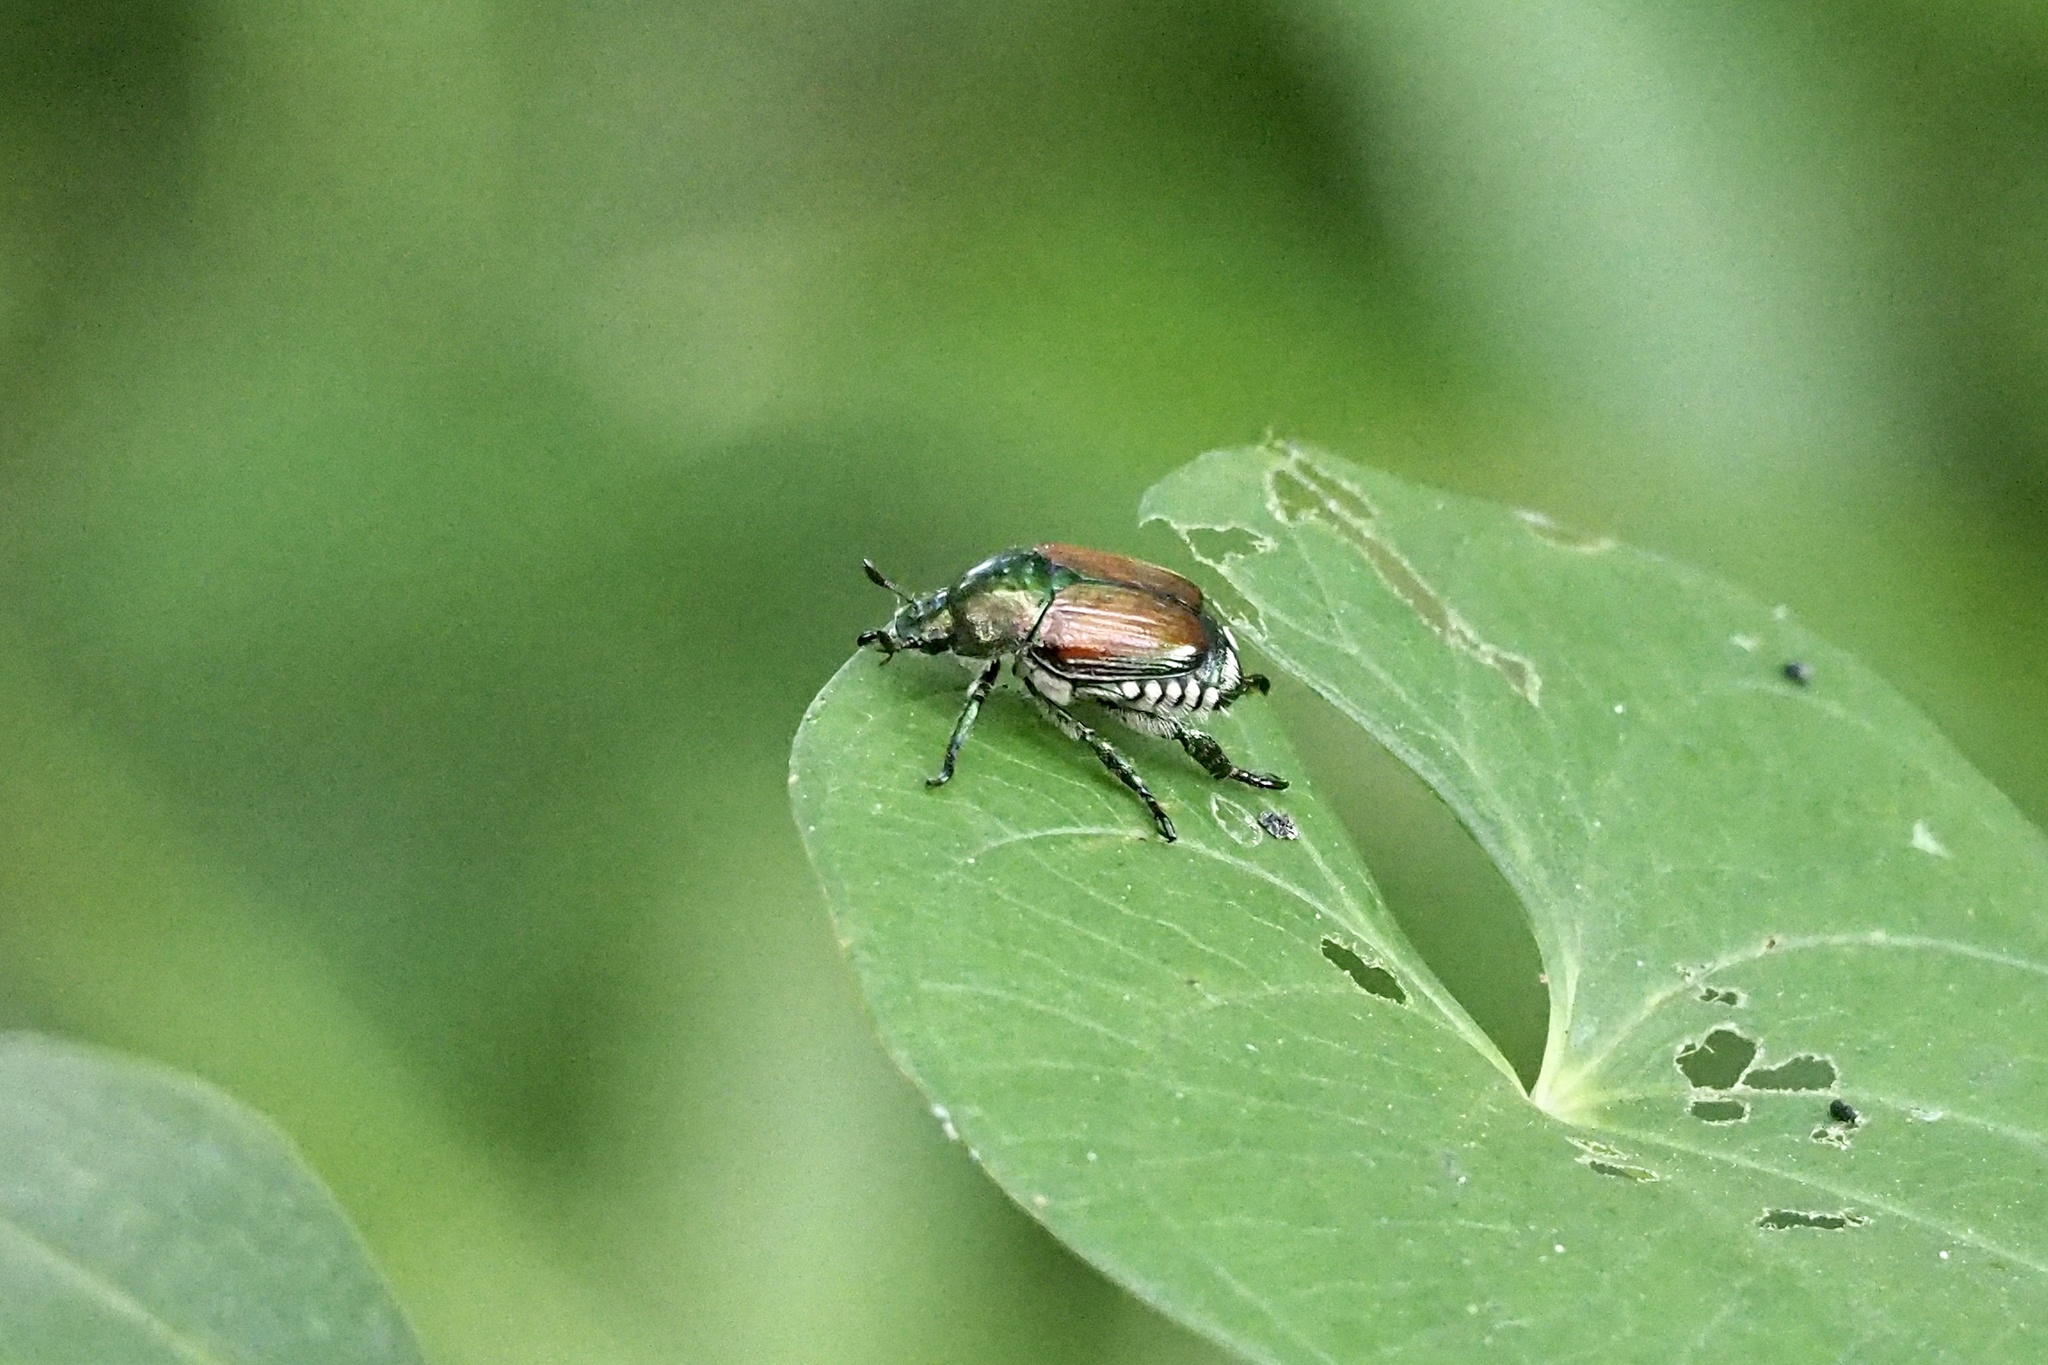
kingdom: Animalia
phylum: Arthropoda
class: Insecta
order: Coleoptera
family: Scarabaeidae
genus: Popillia
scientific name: Popillia japonica
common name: Japanese beetle
